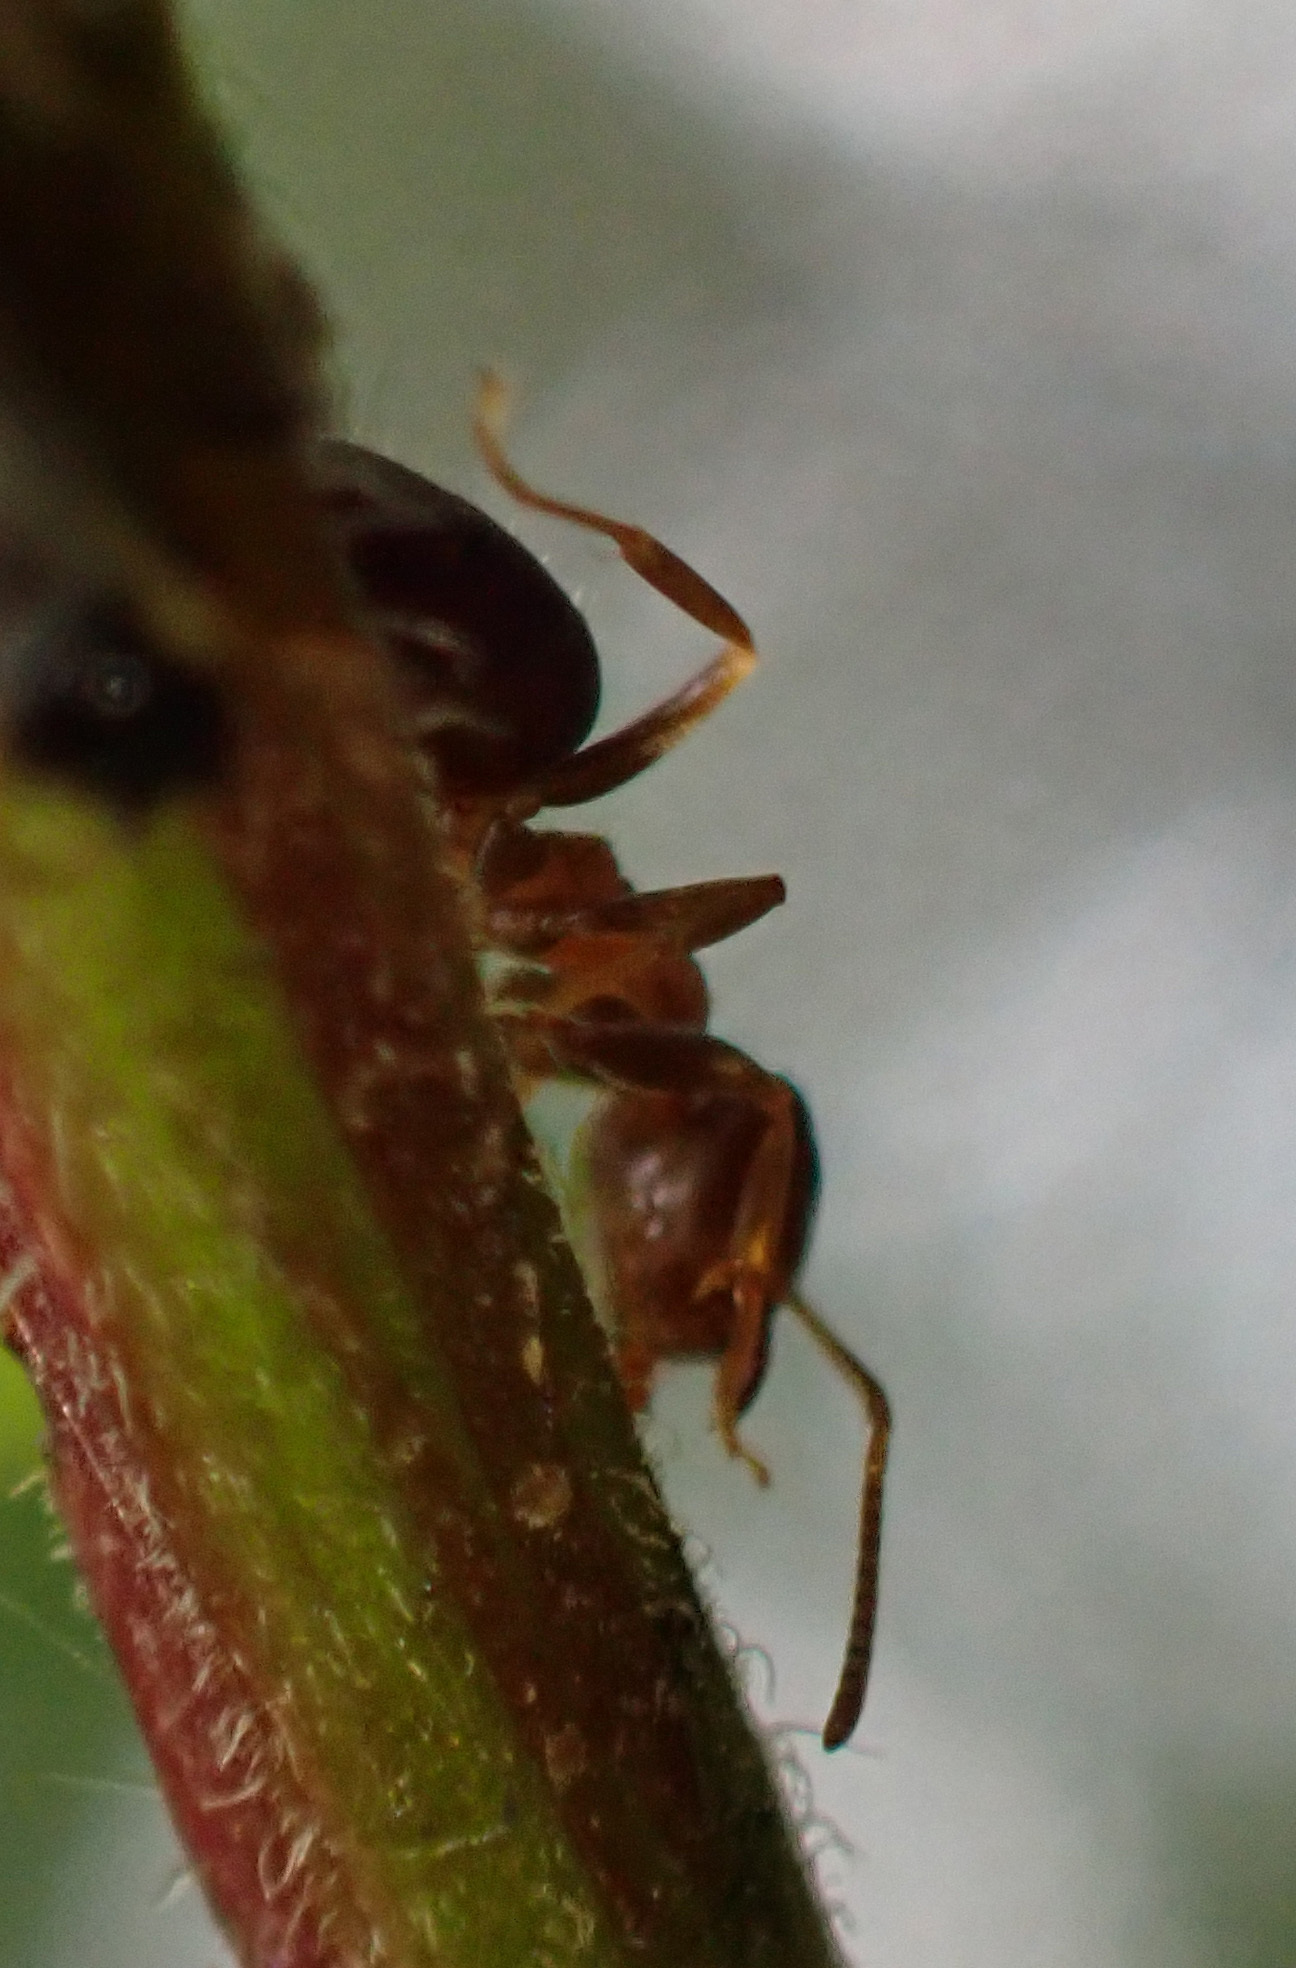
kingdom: Animalia
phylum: Arthropoda
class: Insecta
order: Hymenoptera
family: Formicidae
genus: Lasius
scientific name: Lasius brunneus
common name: Brown ant
